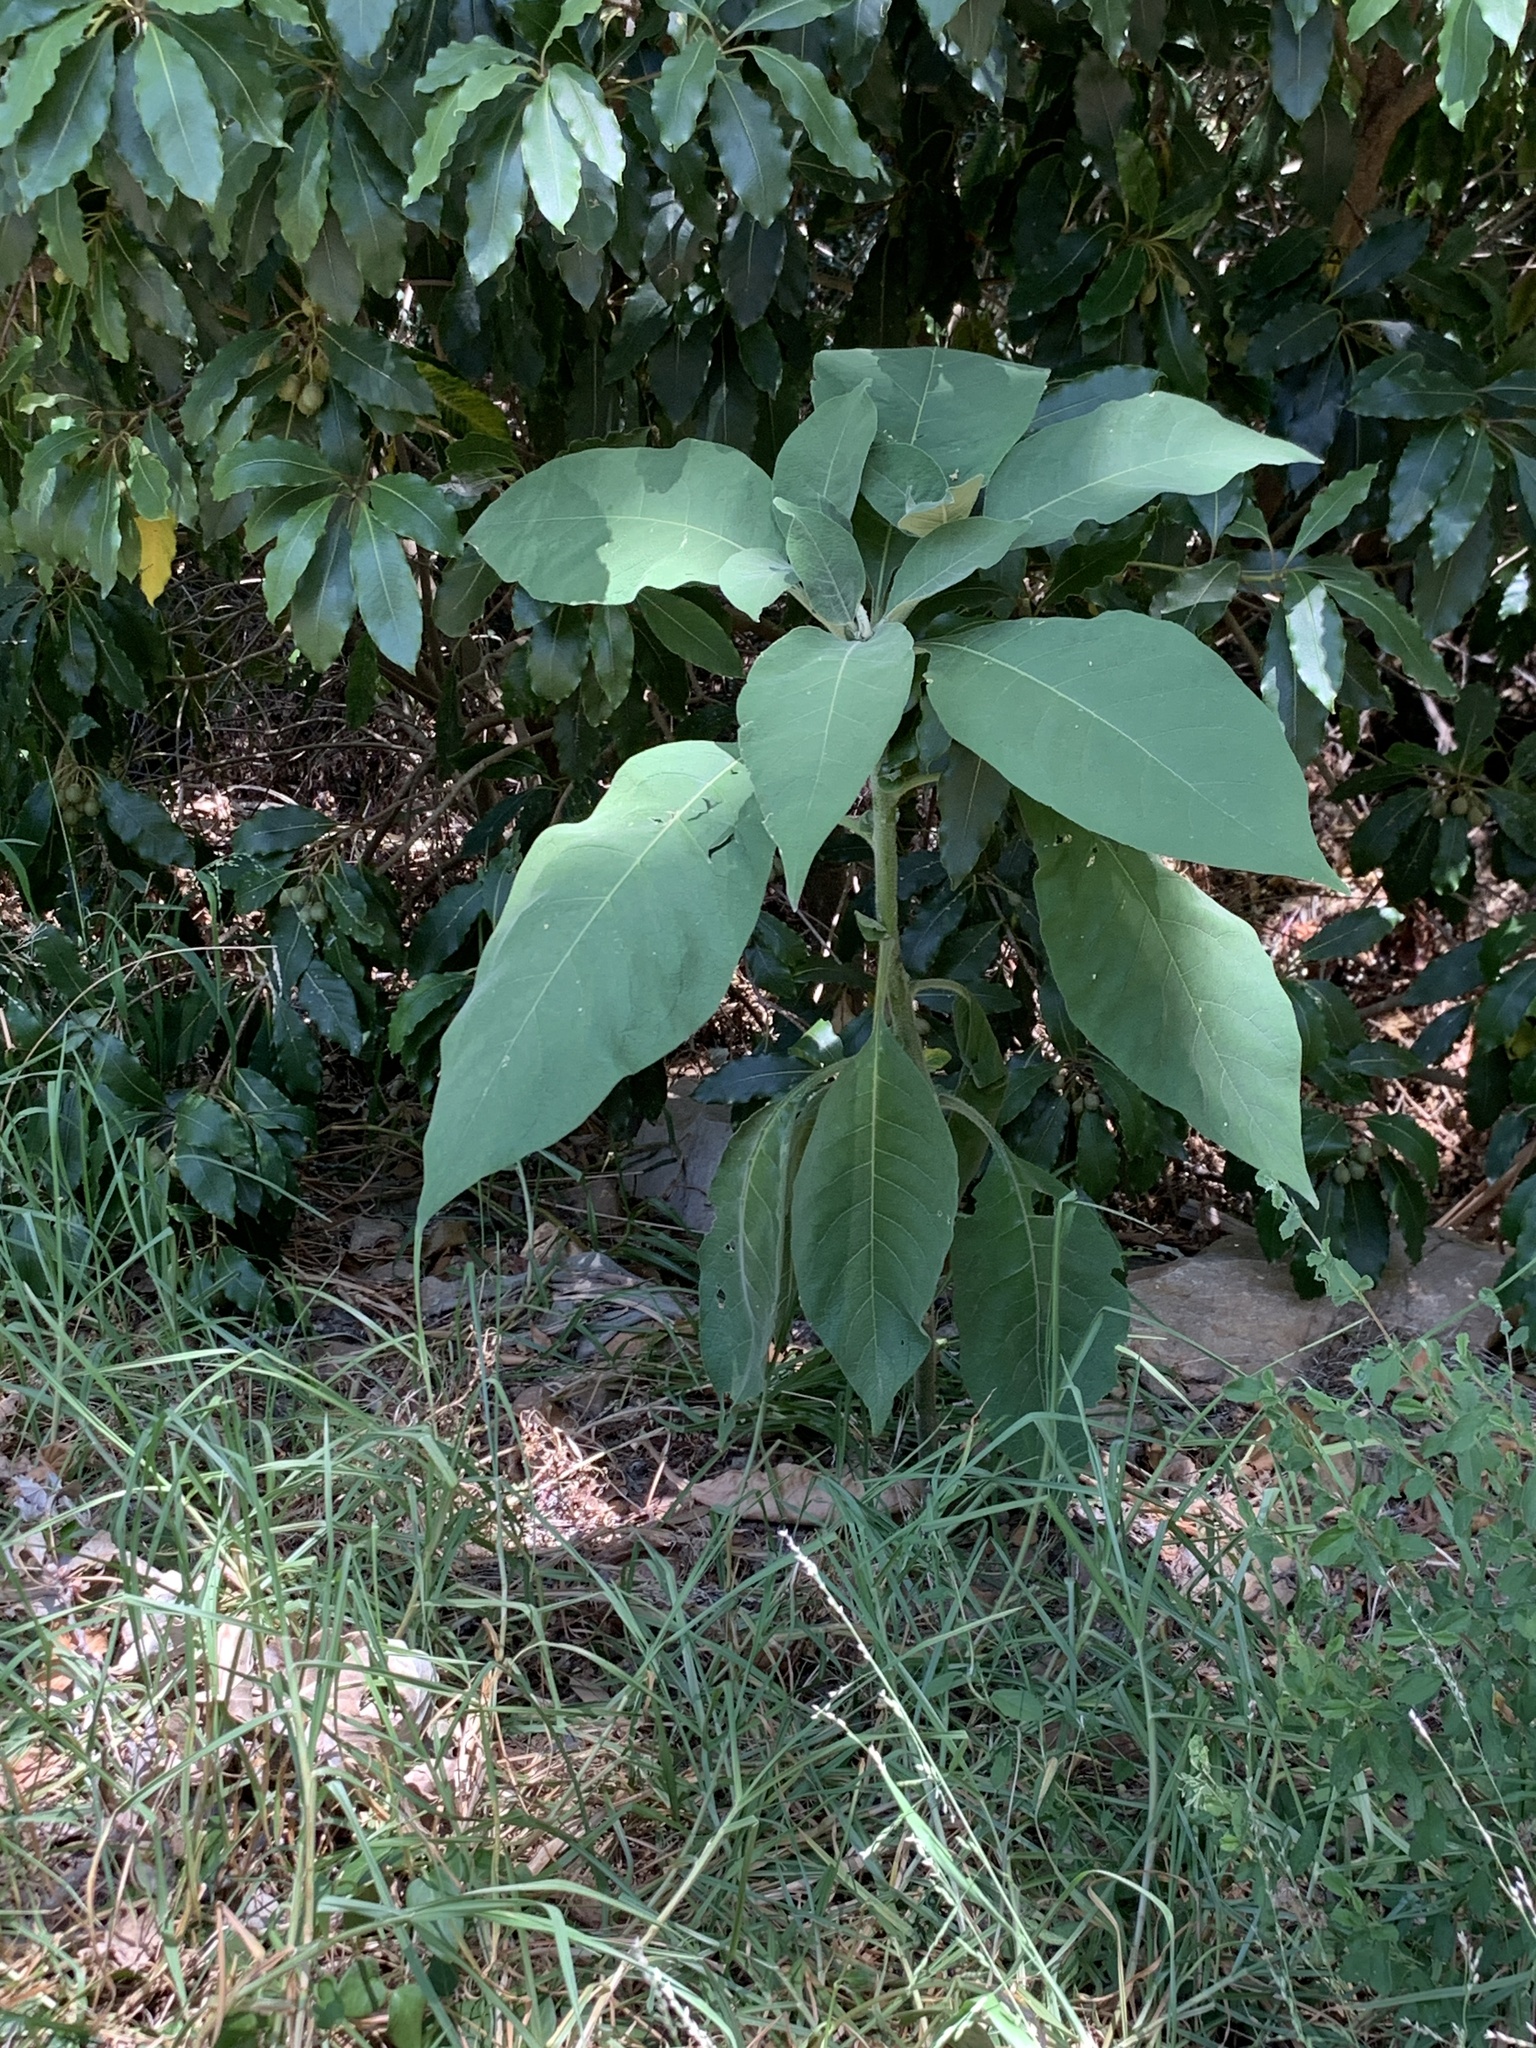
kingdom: Plantae
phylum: Tracheophyta
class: Magnoliopsida
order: Solanales
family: Solanaceae
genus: Solanum
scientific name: Solanum mauritianum
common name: Earleaf nightshade
